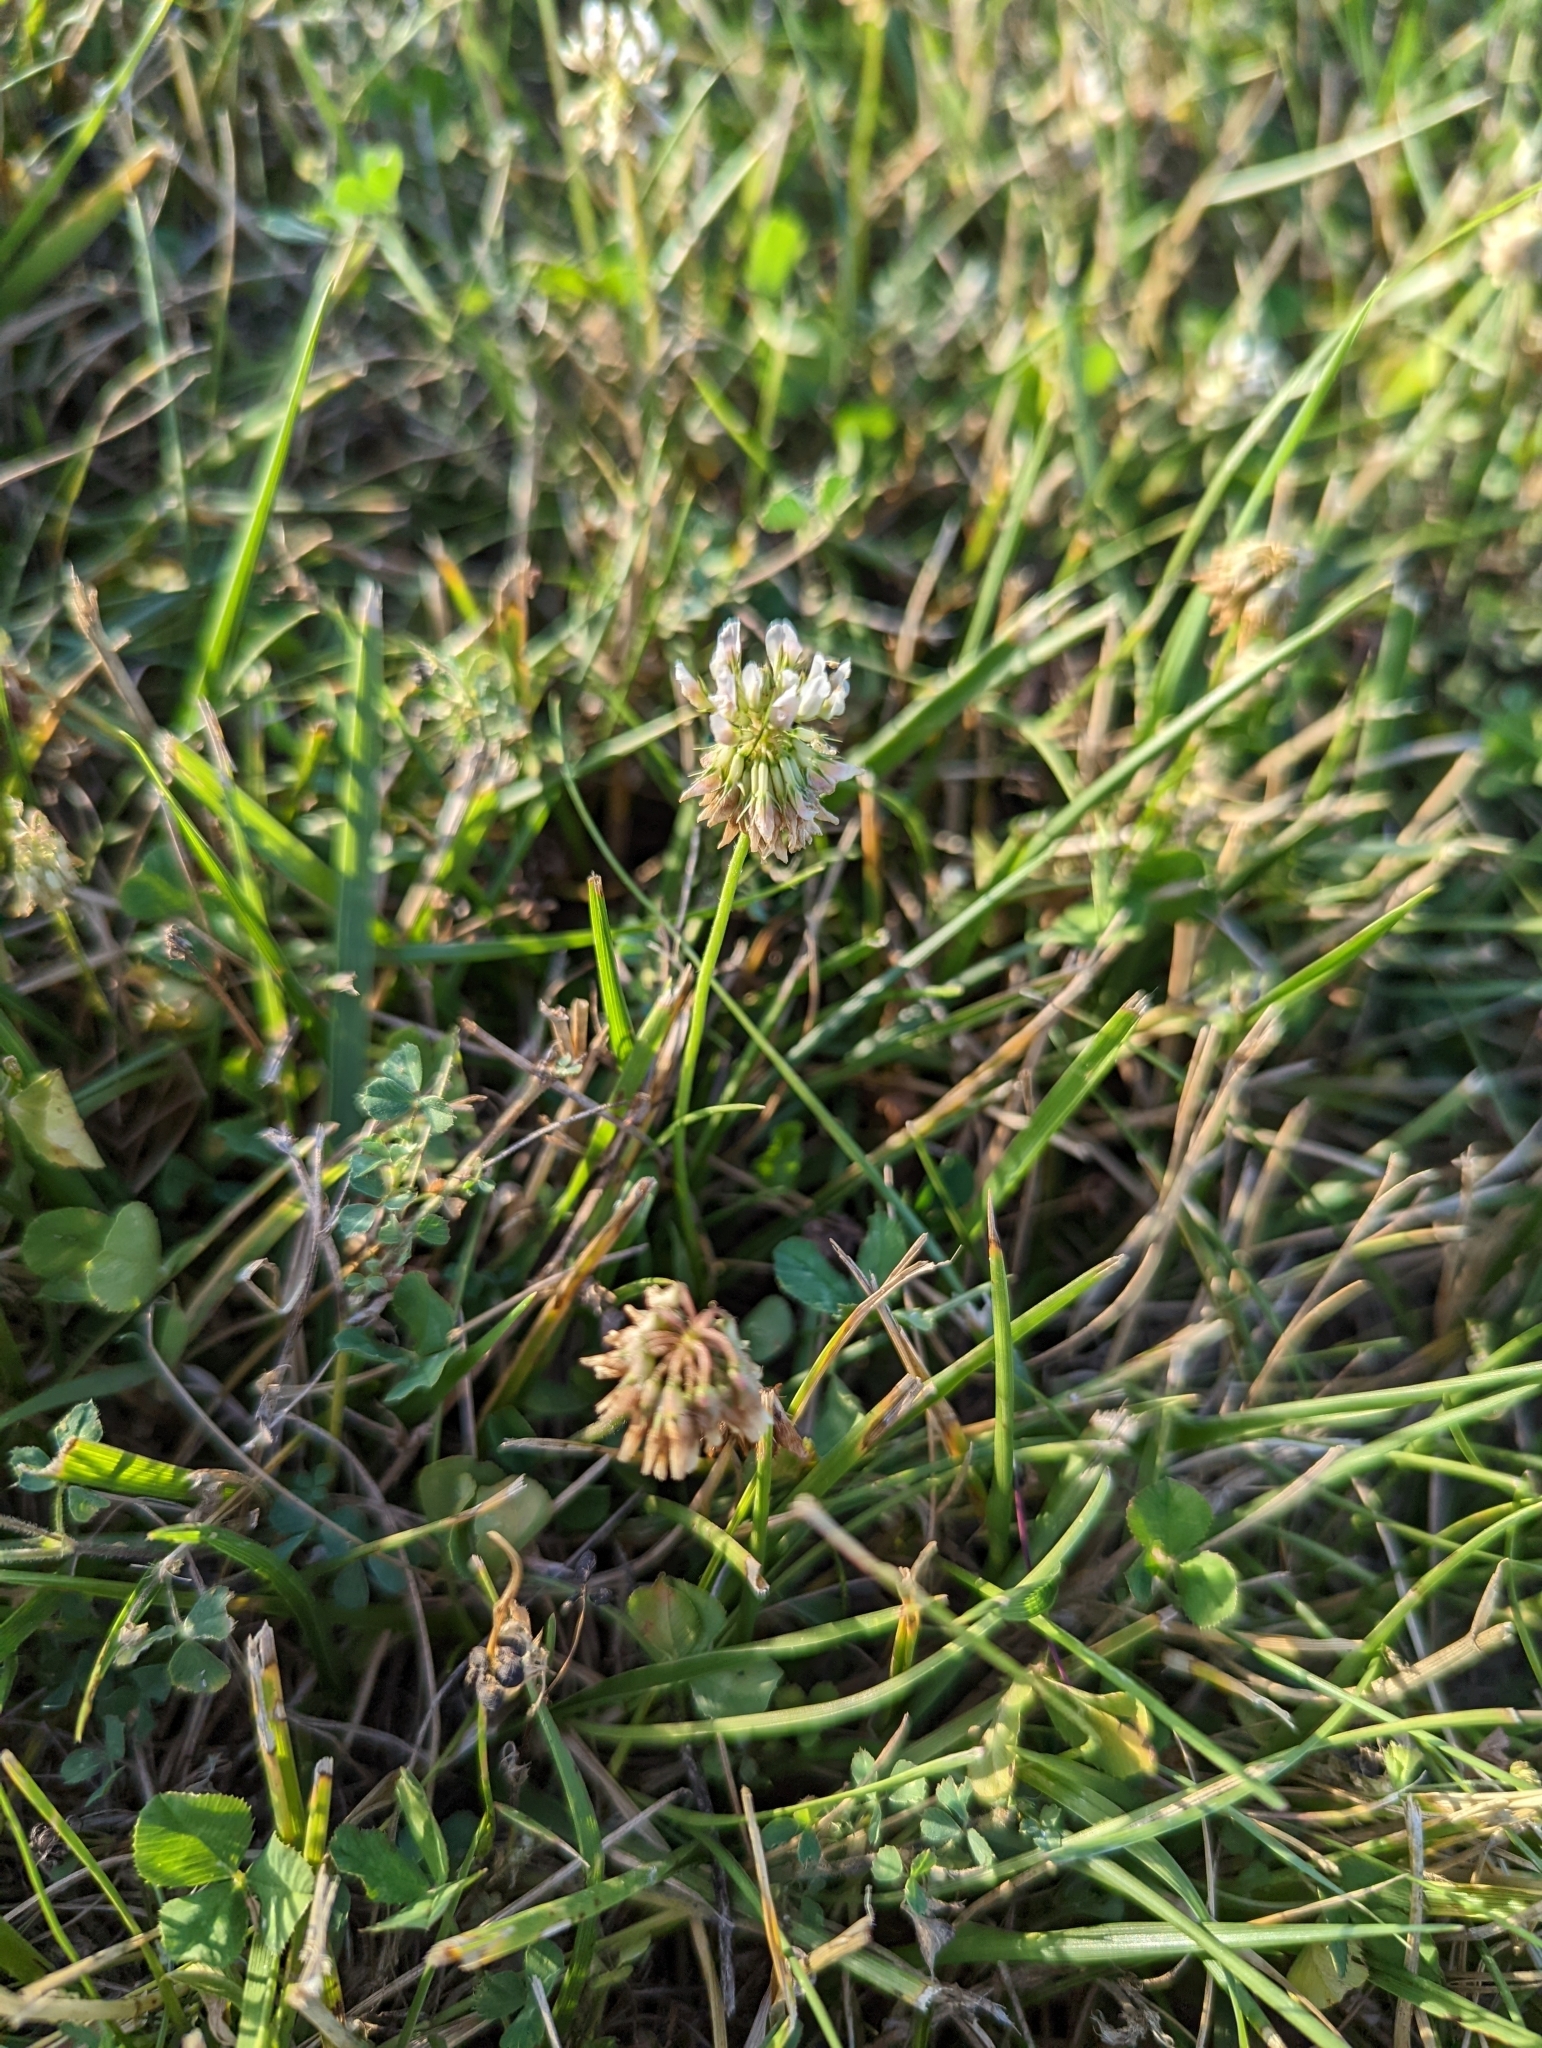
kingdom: Plantae
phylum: Tracheophyta
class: Magnoliopsida
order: Fabales
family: Fabaceae
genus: Trifolium
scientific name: Trifolium repens
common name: White clover
